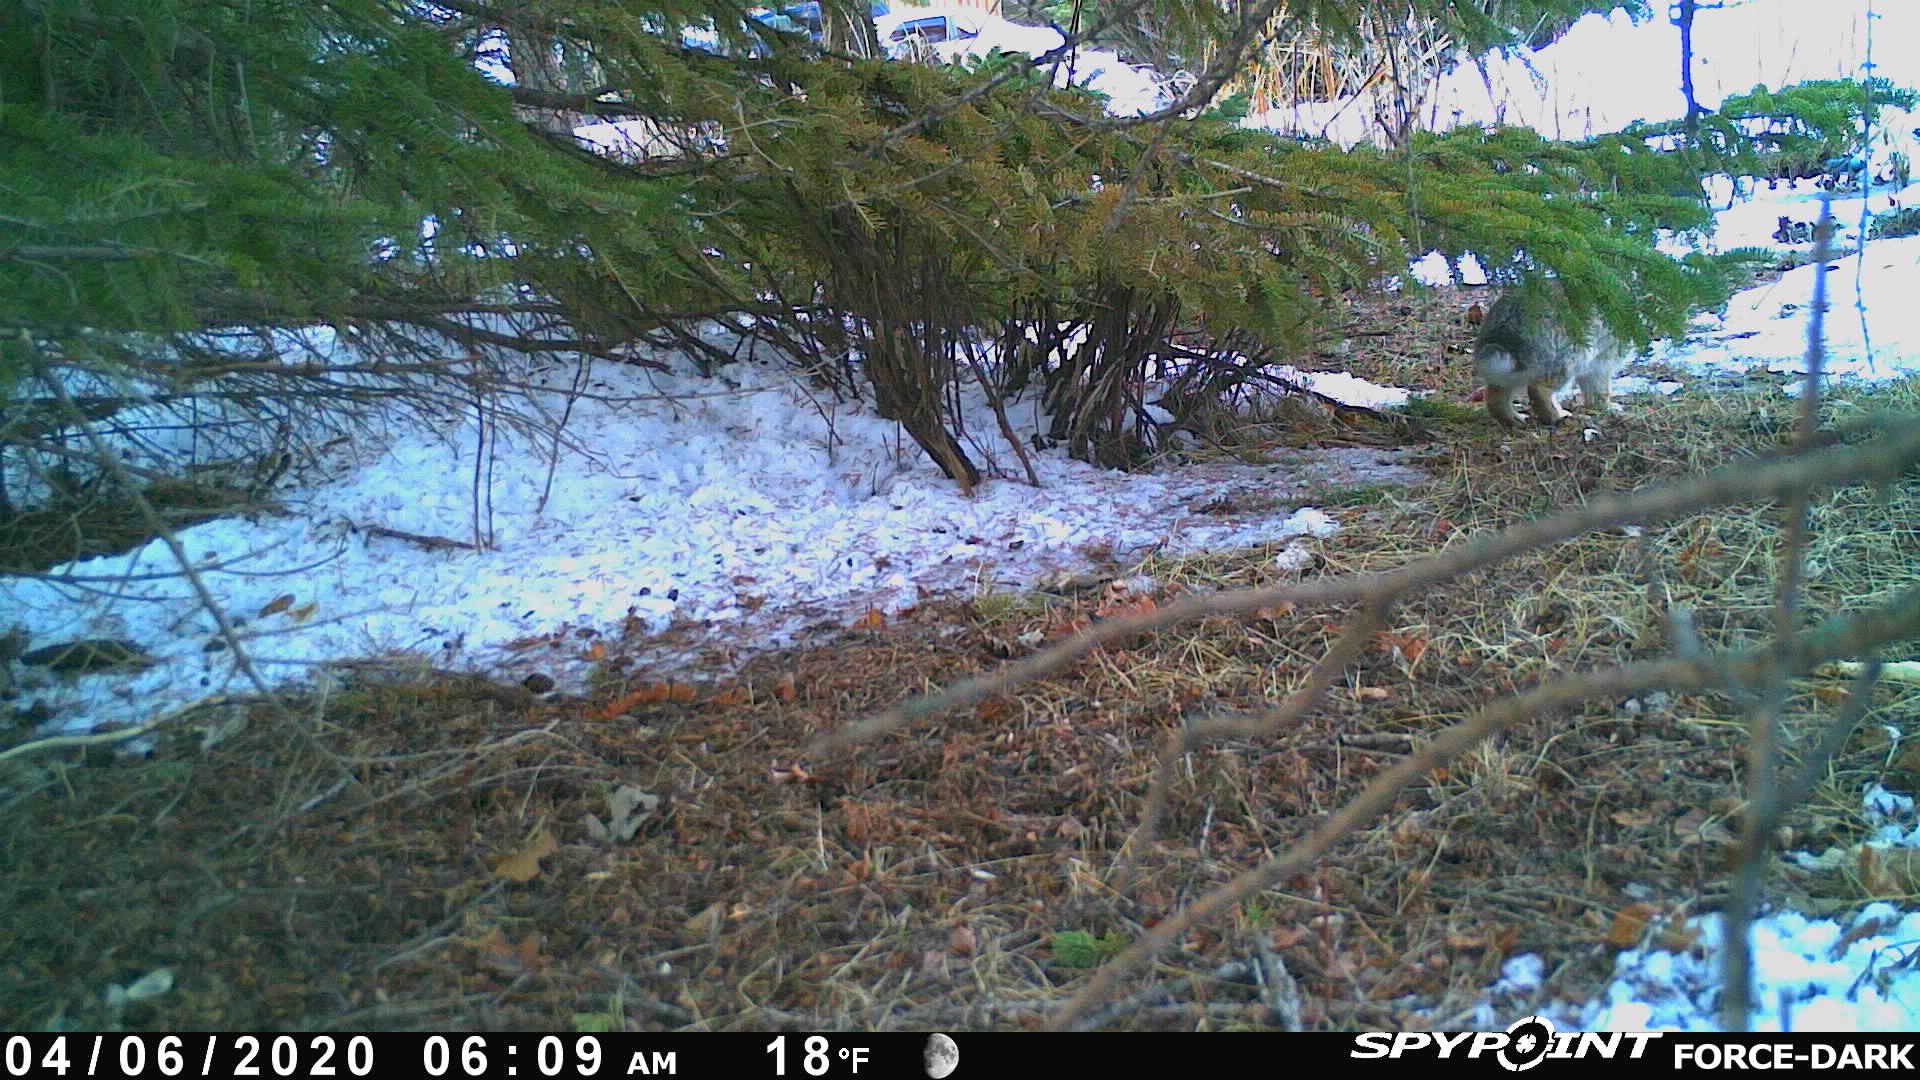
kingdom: Animalia
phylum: Chordata
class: Mammalia
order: Lagomorpha
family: Leporidae
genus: Sylvilagus
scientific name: Sylvilagus floridanus
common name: Eastern cottontail
